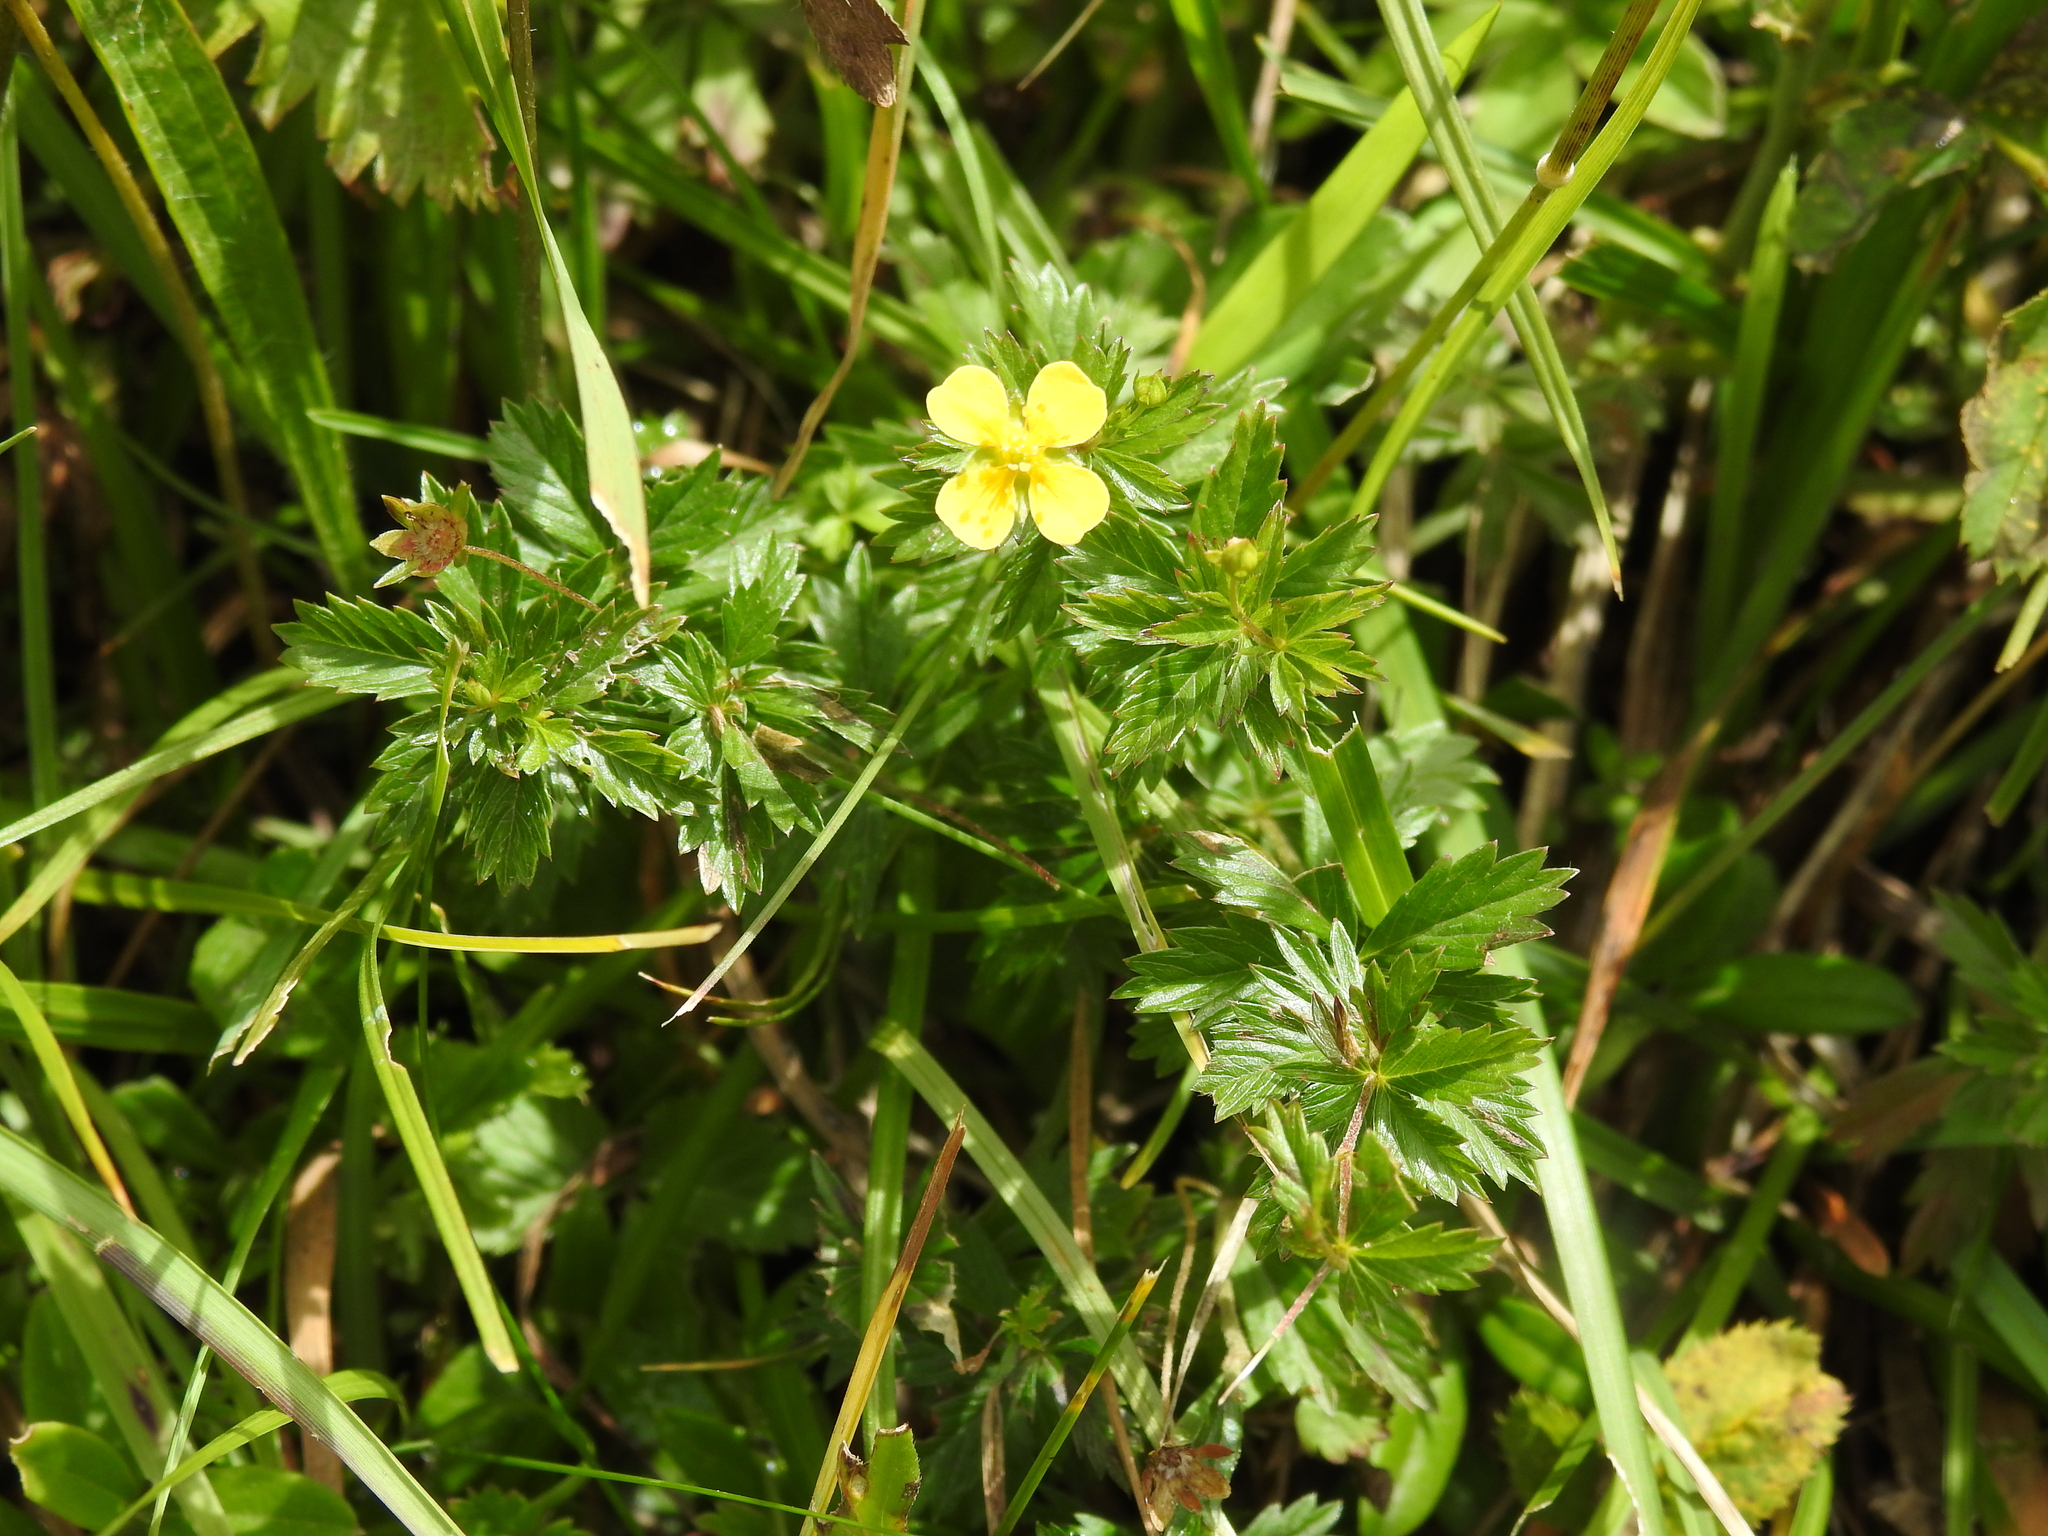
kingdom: Plantae
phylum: Tracheophyta
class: Magnoliopsida
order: Rosales
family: Rosaceae
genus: Potentilla
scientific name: Potentilla erecta
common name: Tormentil
